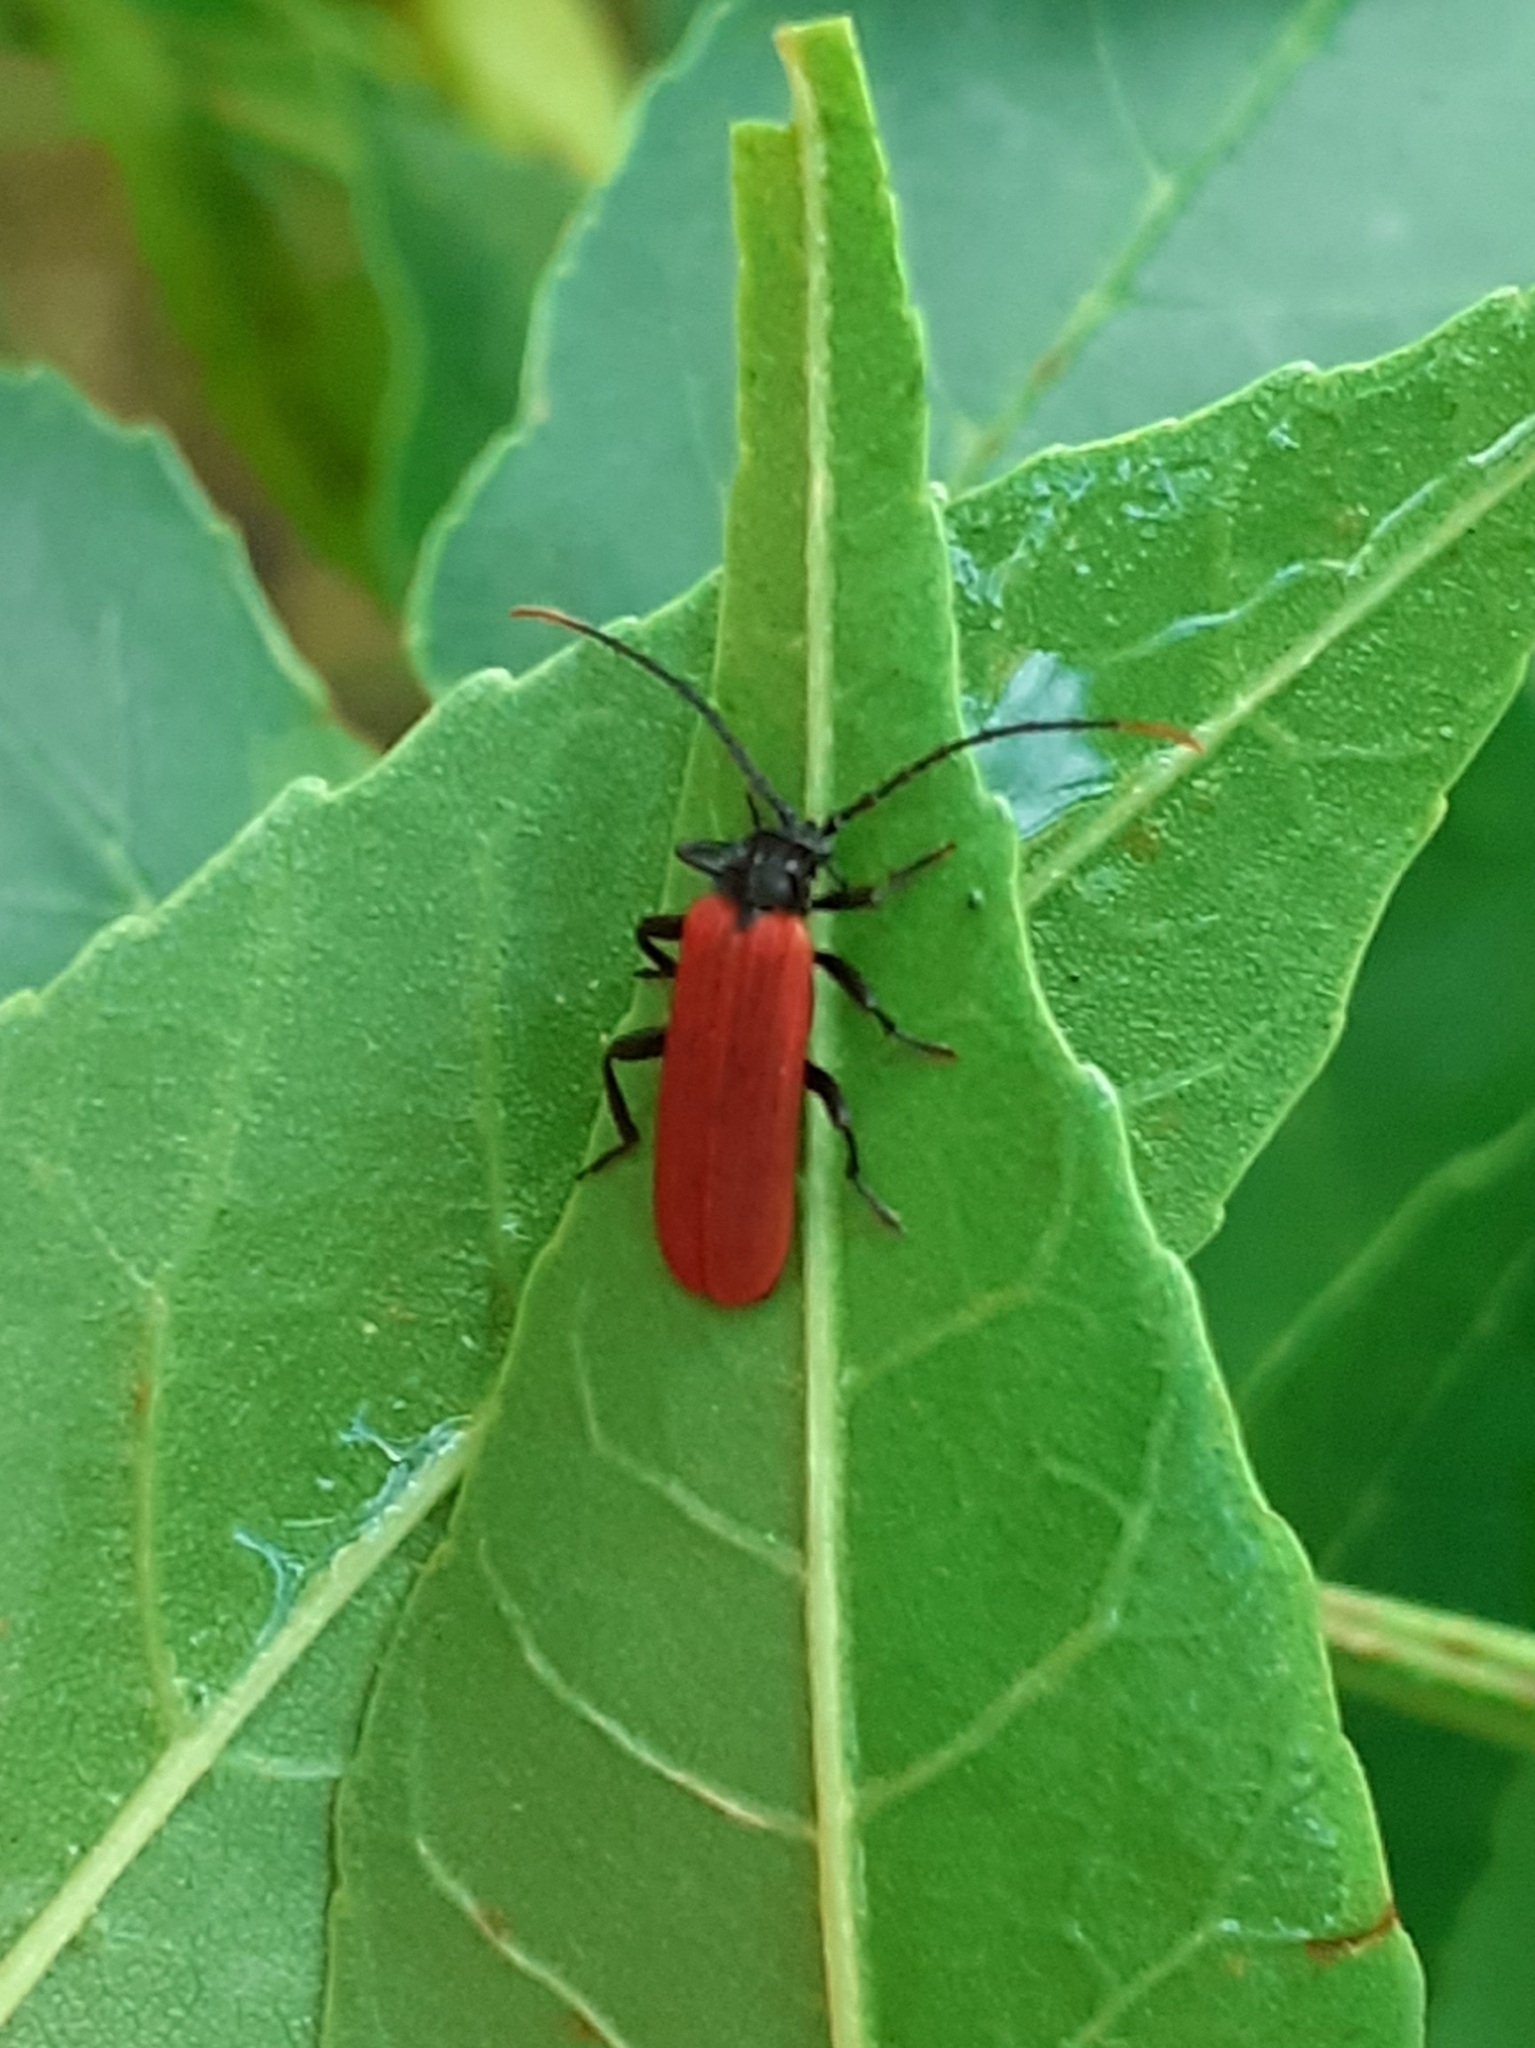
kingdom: Animalia
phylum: Arthropoda
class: Insecta
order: Coleoptera
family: Lycidae
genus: Platycis
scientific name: Platycis minutus
